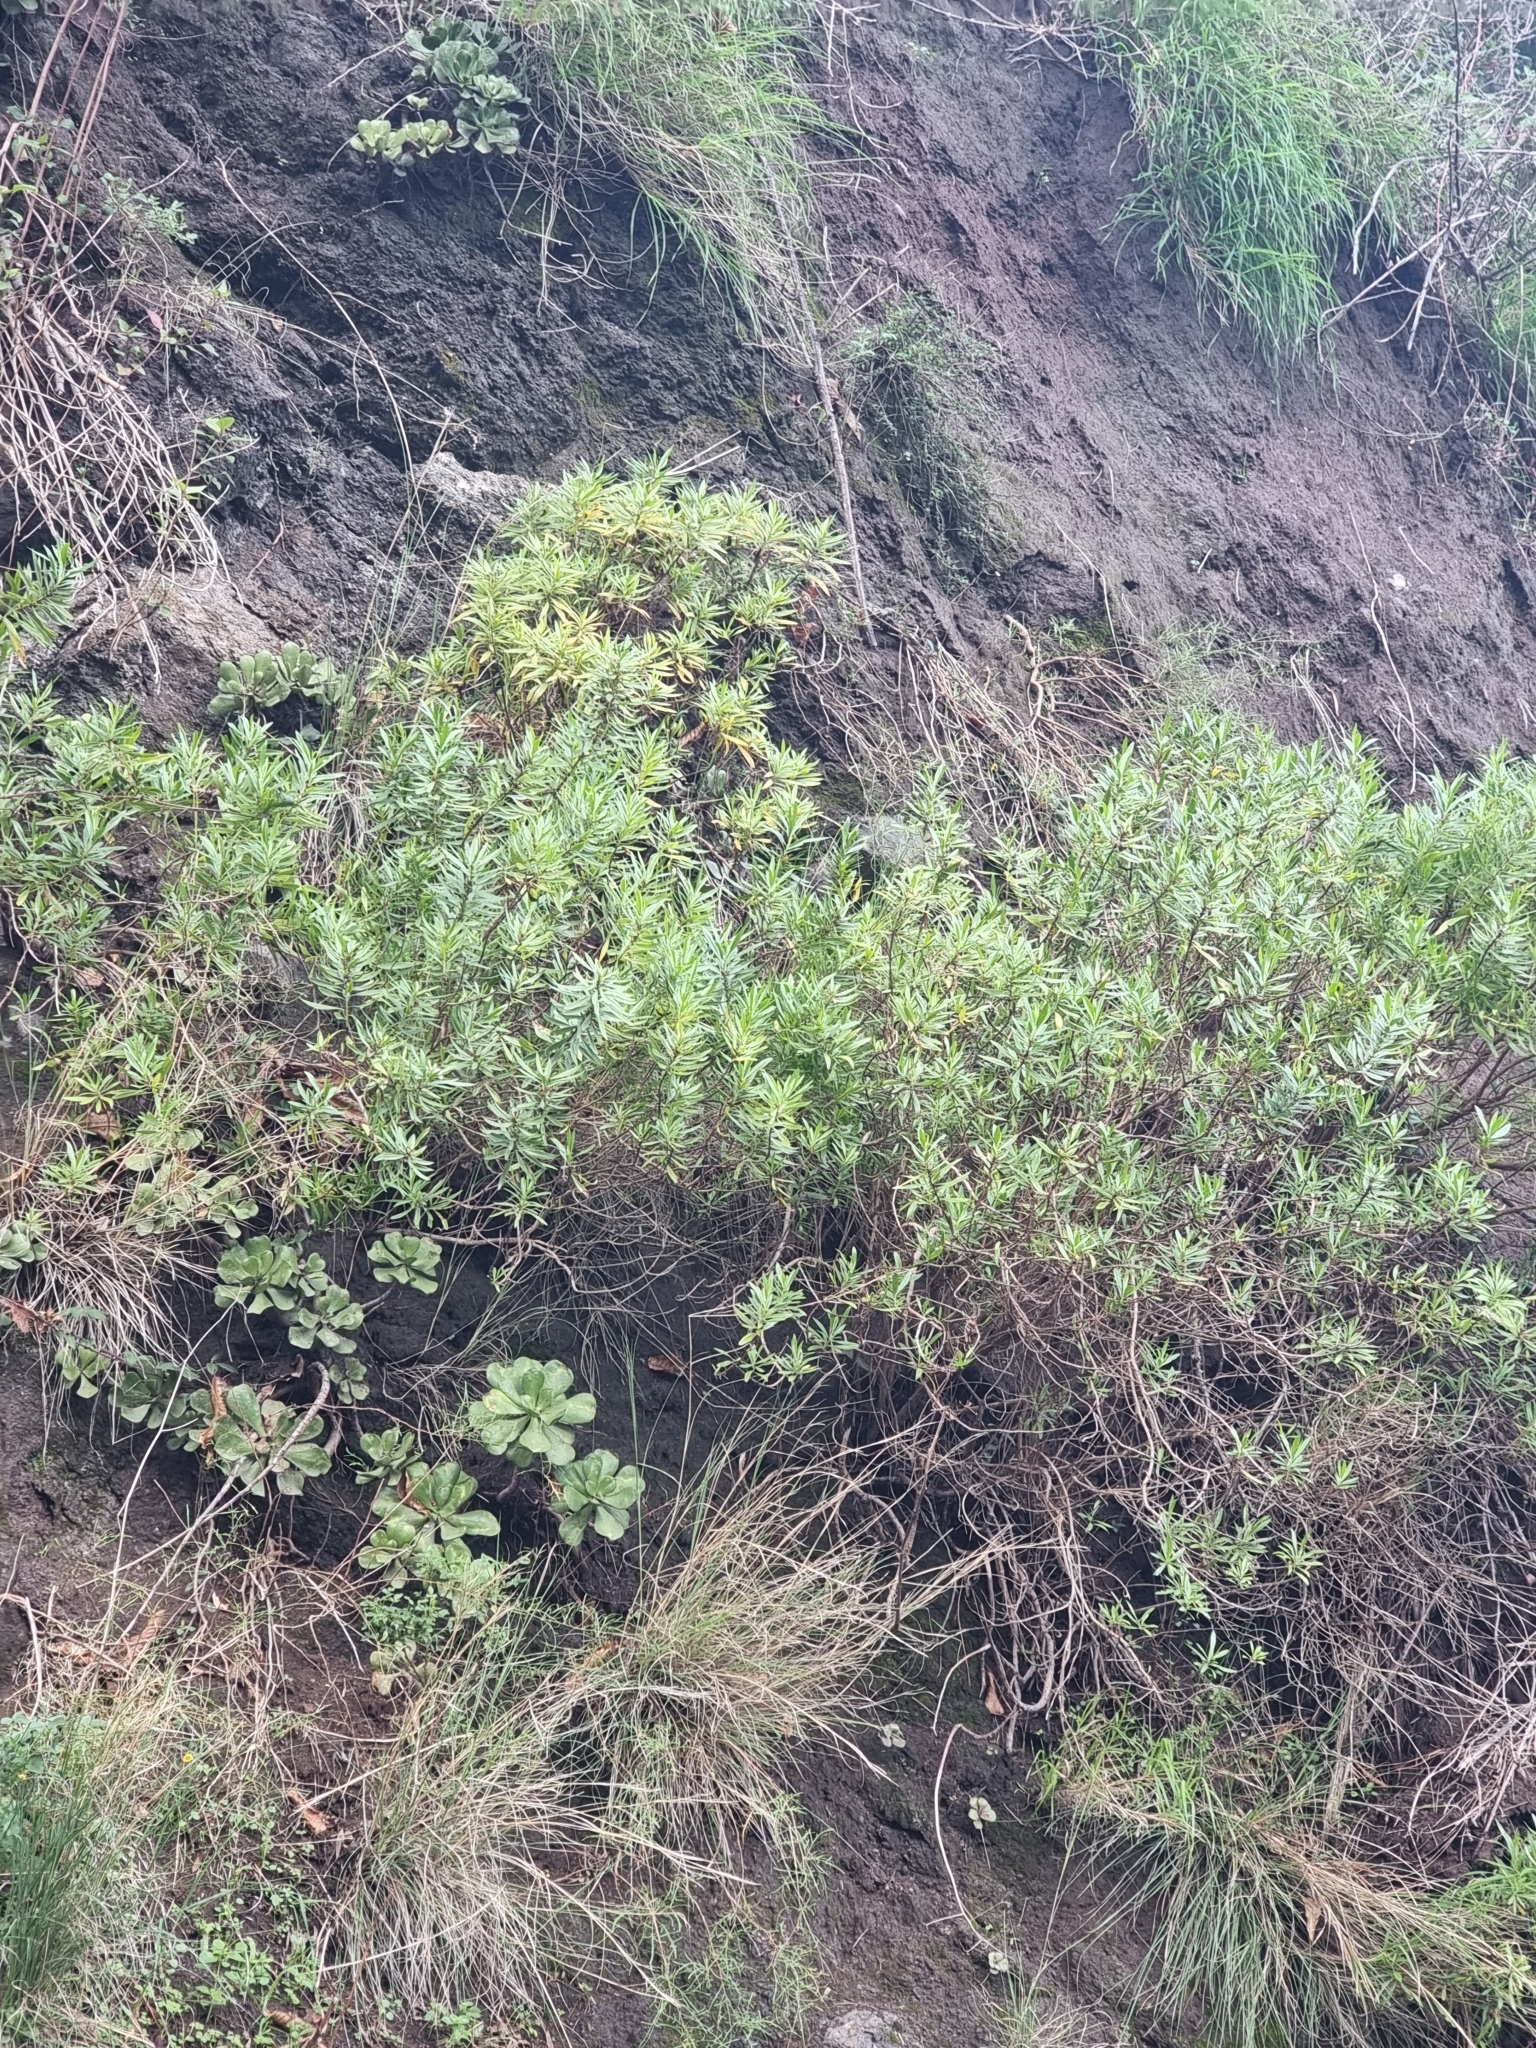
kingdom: Plantae
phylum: Tracheophyta
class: Magnoliopsida
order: Lamiales
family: Plantaginaceae
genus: Globularia
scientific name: Globularia salicina
